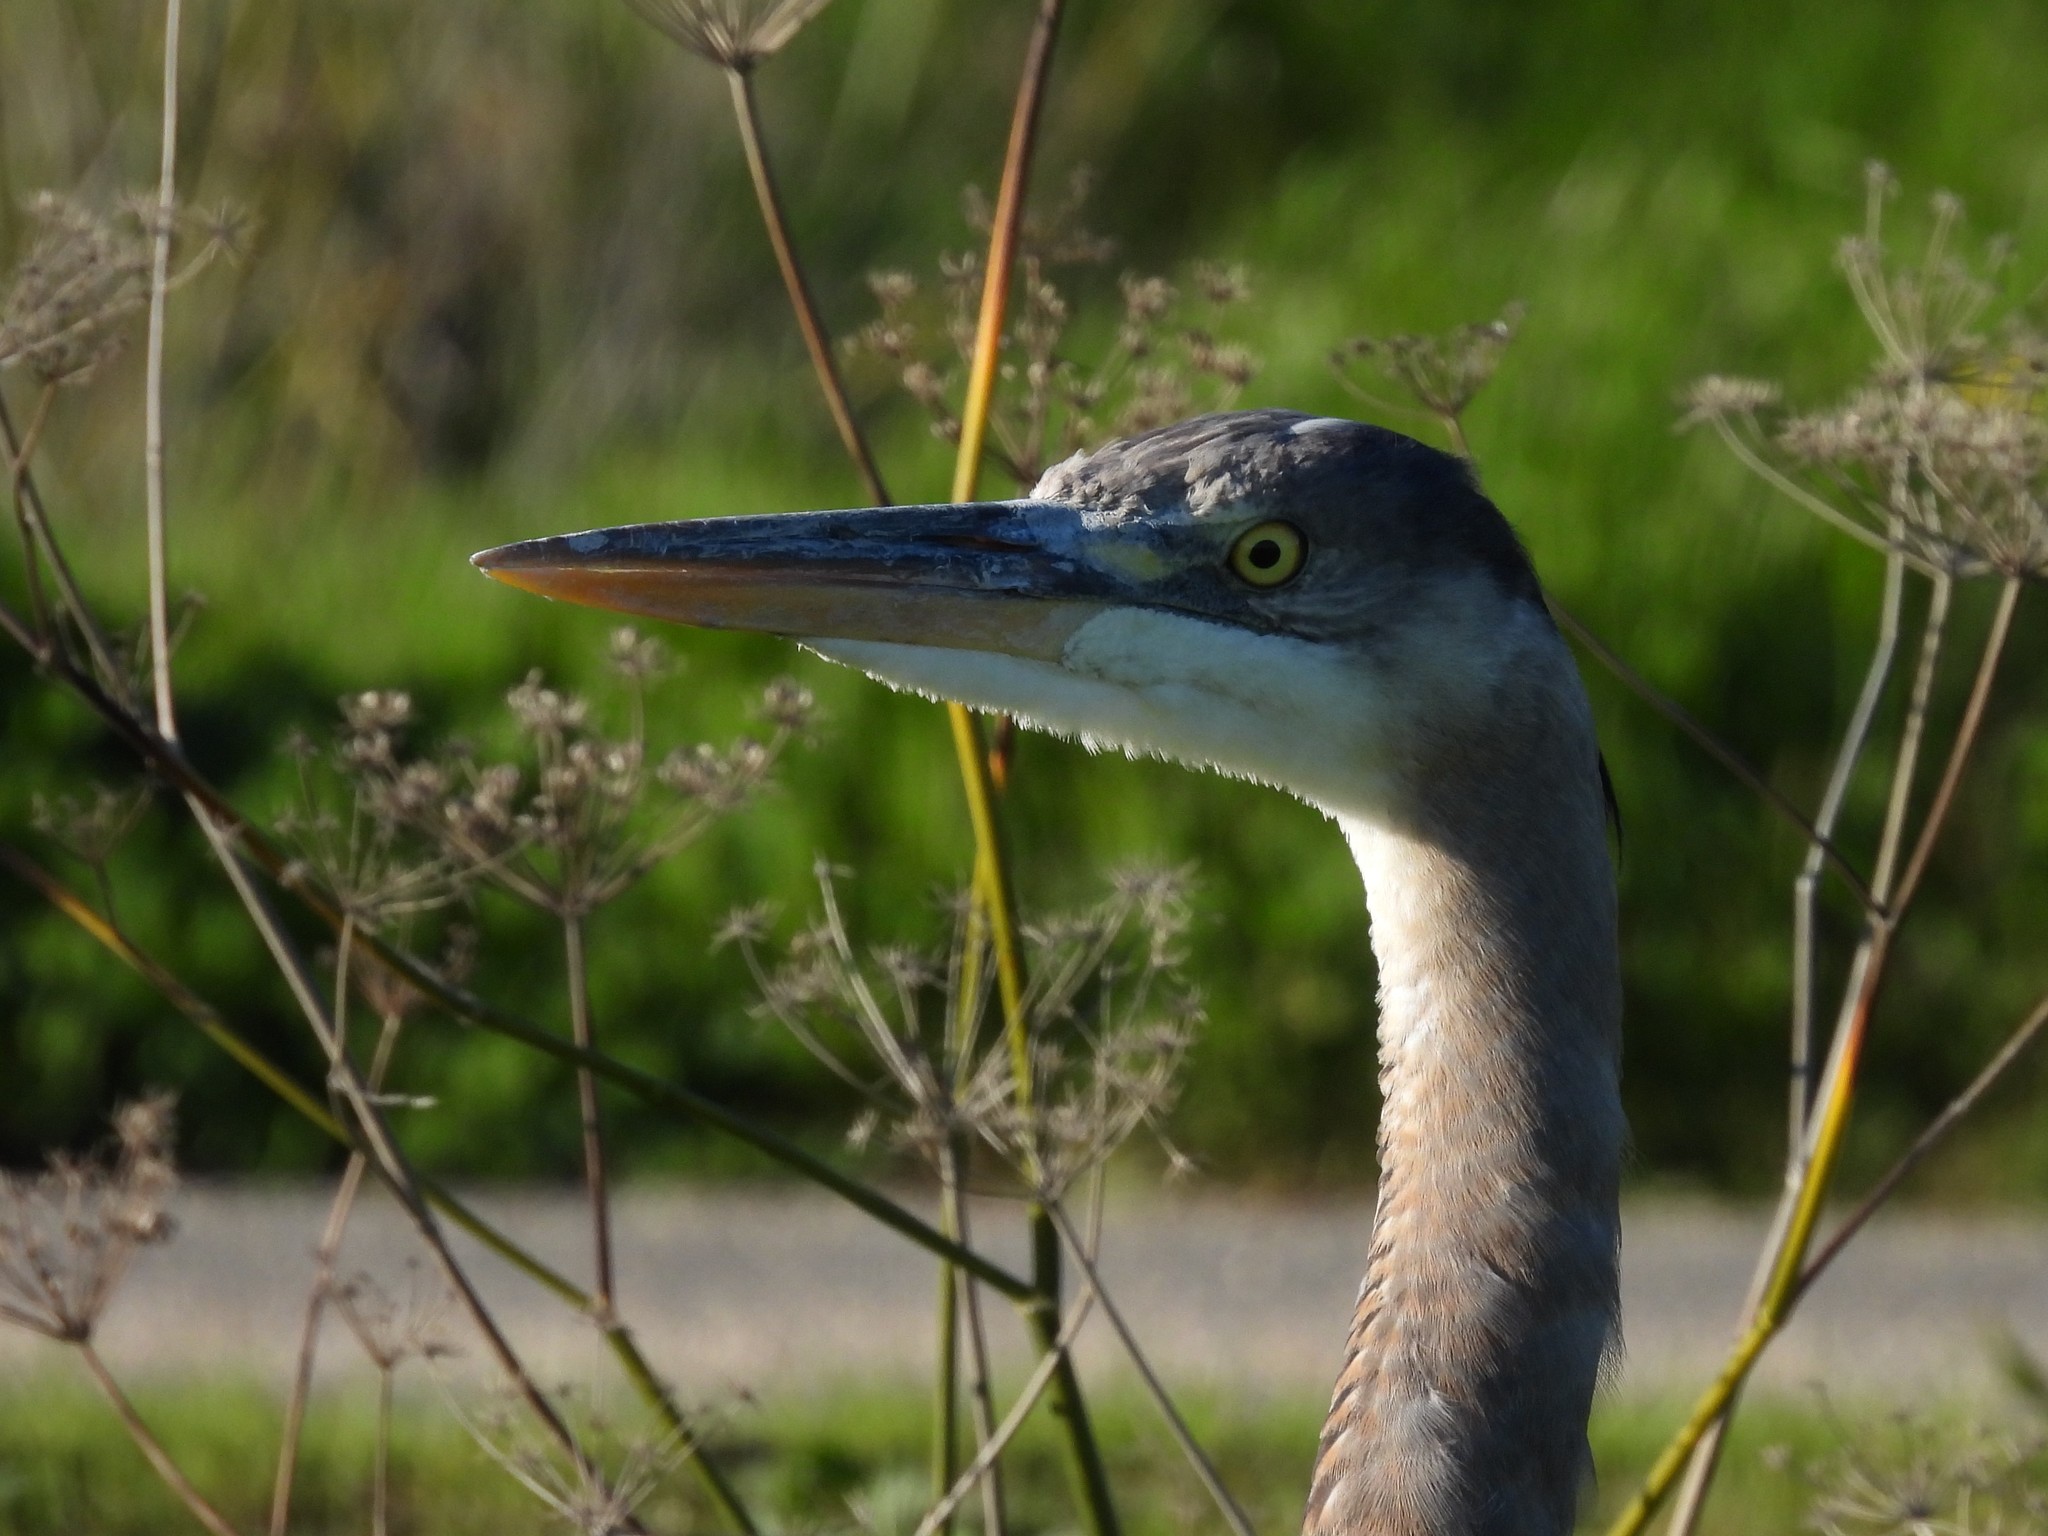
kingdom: Animalia
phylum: Chordata
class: Aves
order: Pelecaniformes
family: Ardeidae
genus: Ardea
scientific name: Ardea herodias
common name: Great blue heron
